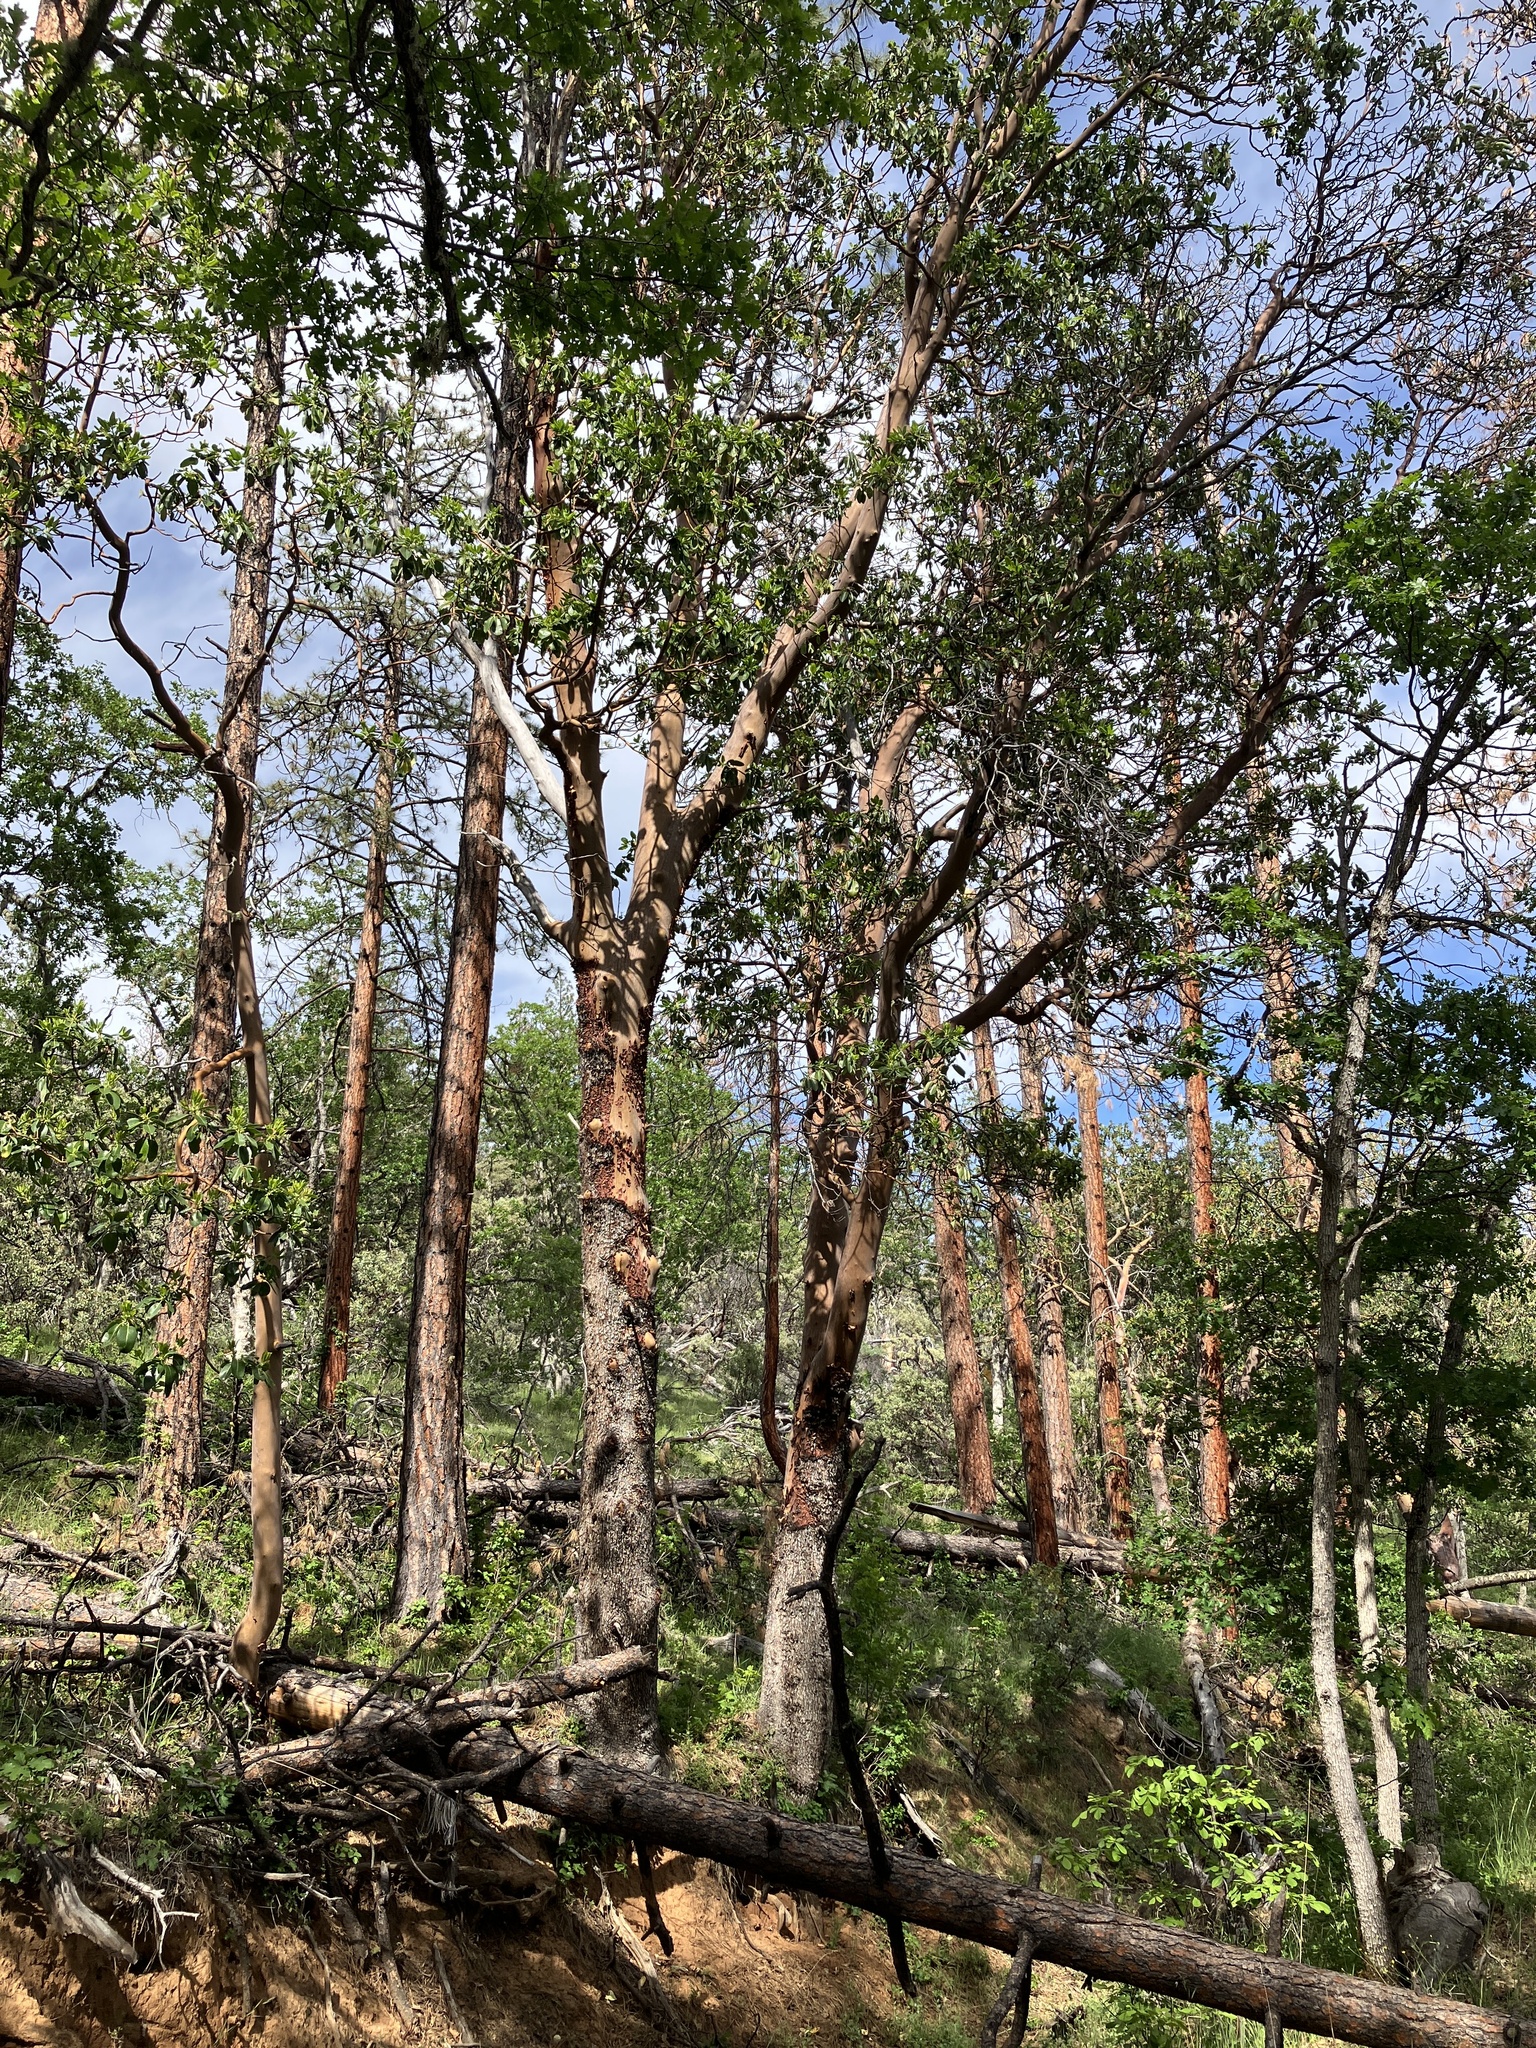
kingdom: Plantae
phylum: Tracheophyta
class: Magnoliopsida
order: Ericales
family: Ericaceae
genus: Arbutus
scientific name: Arbutus menziesii
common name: Pacific madrone
